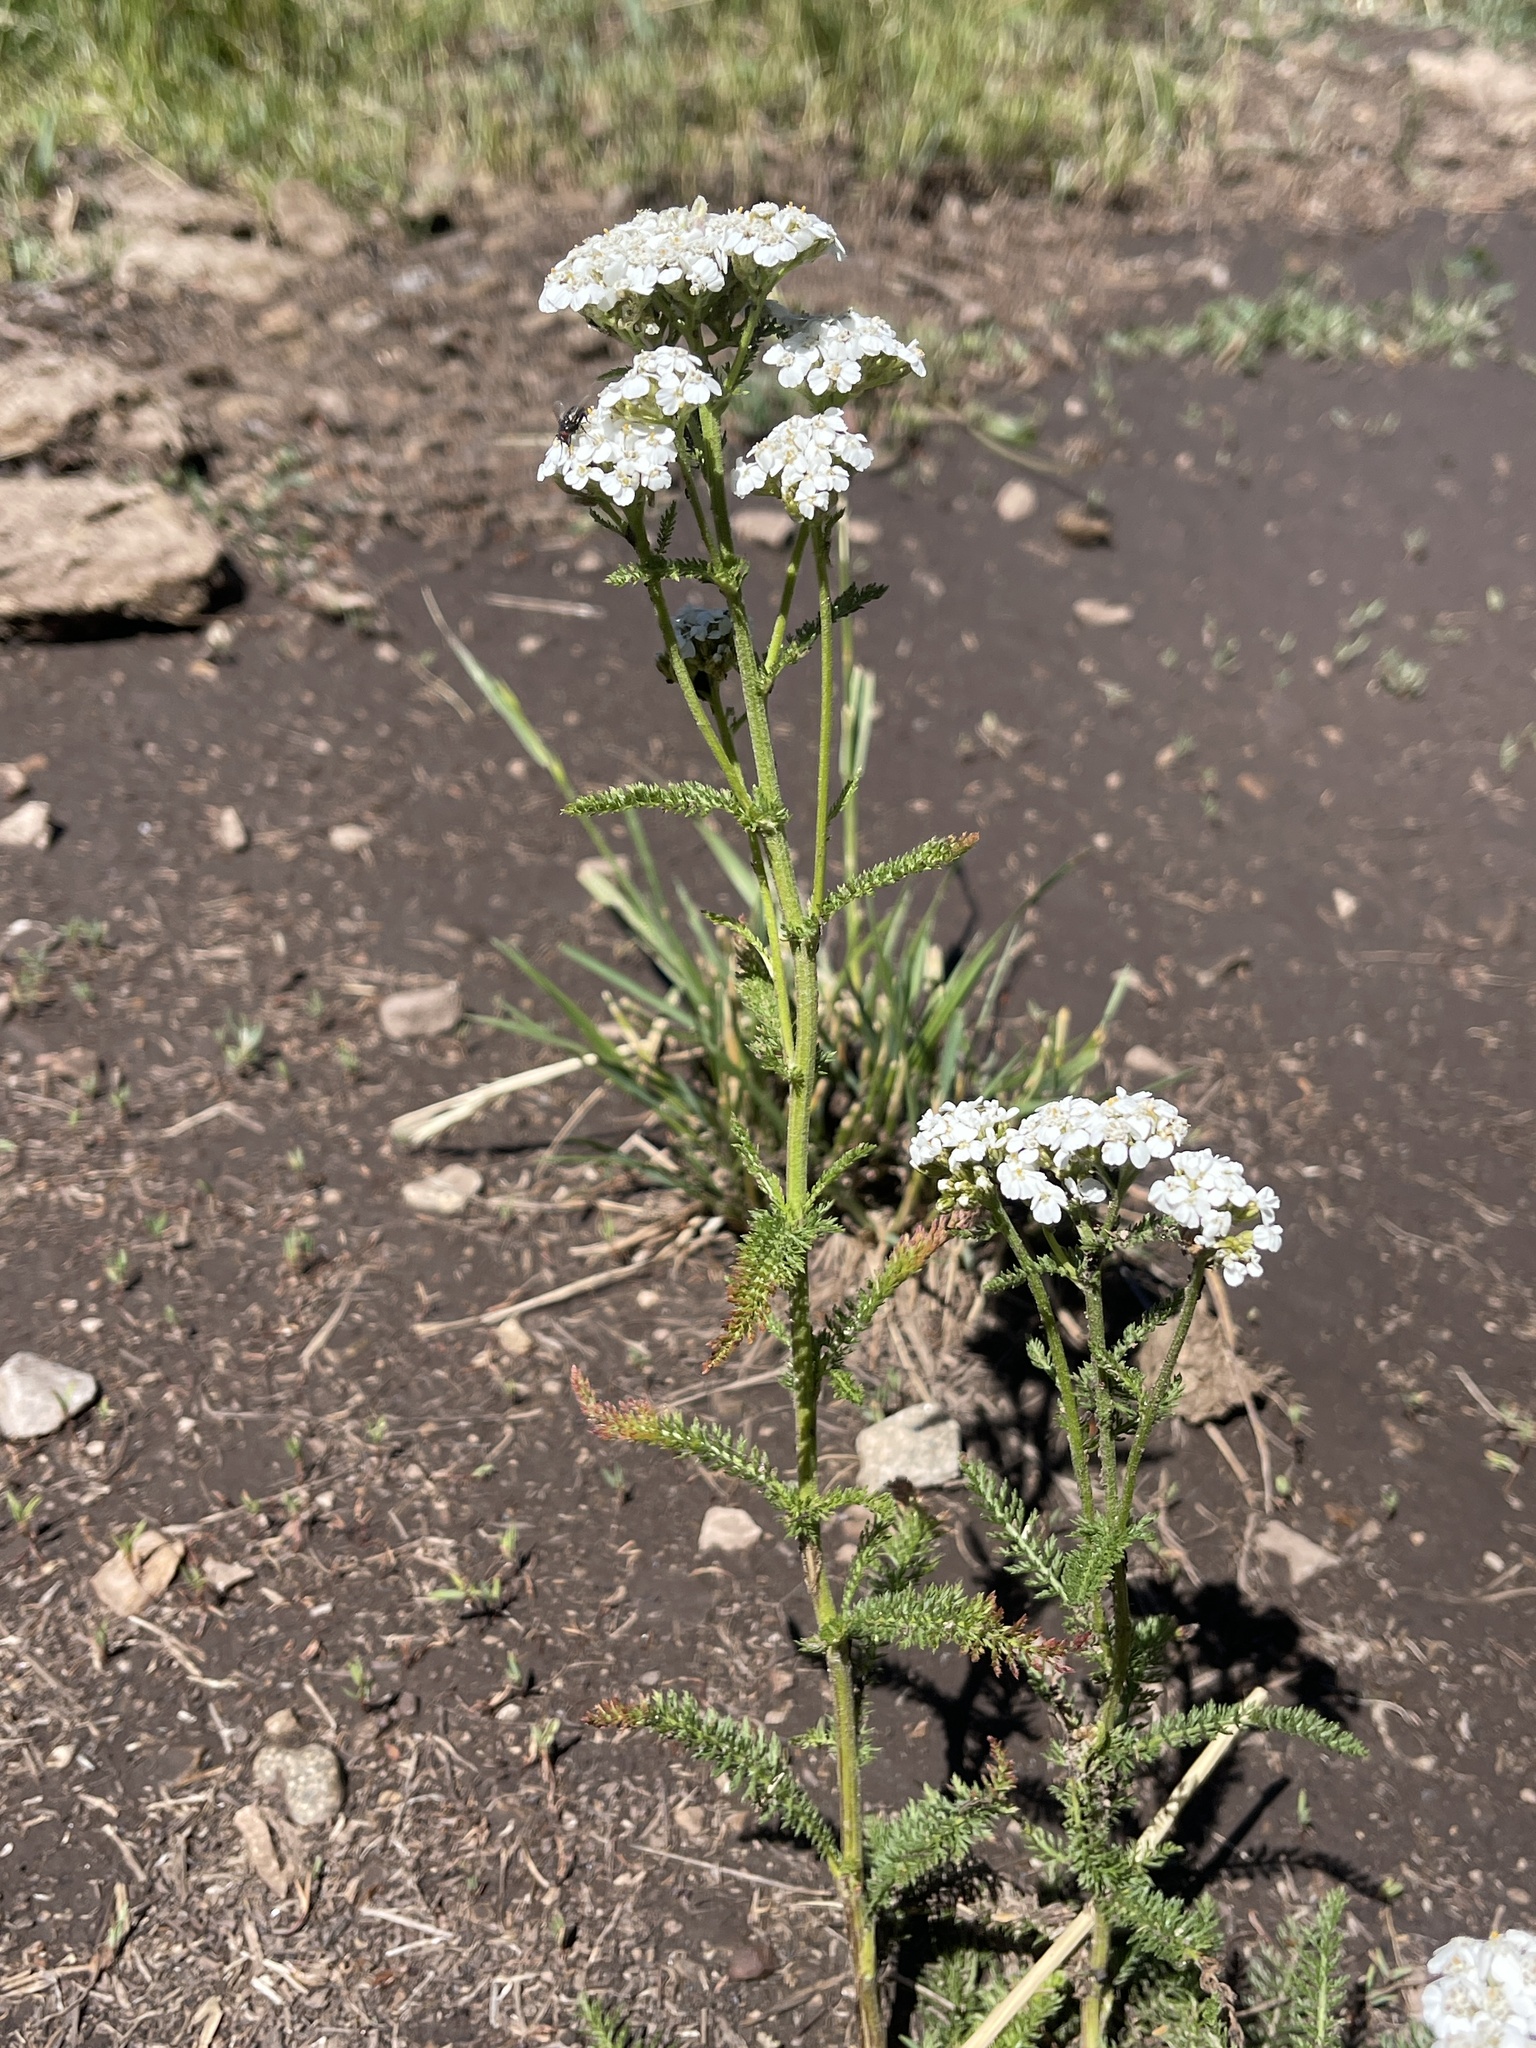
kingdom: Plantae
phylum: Tracheophyta
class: Magnoliopsida
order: Asterales
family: Asteraceae
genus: Achillea
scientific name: Achillea millefolium
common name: Yarrow
